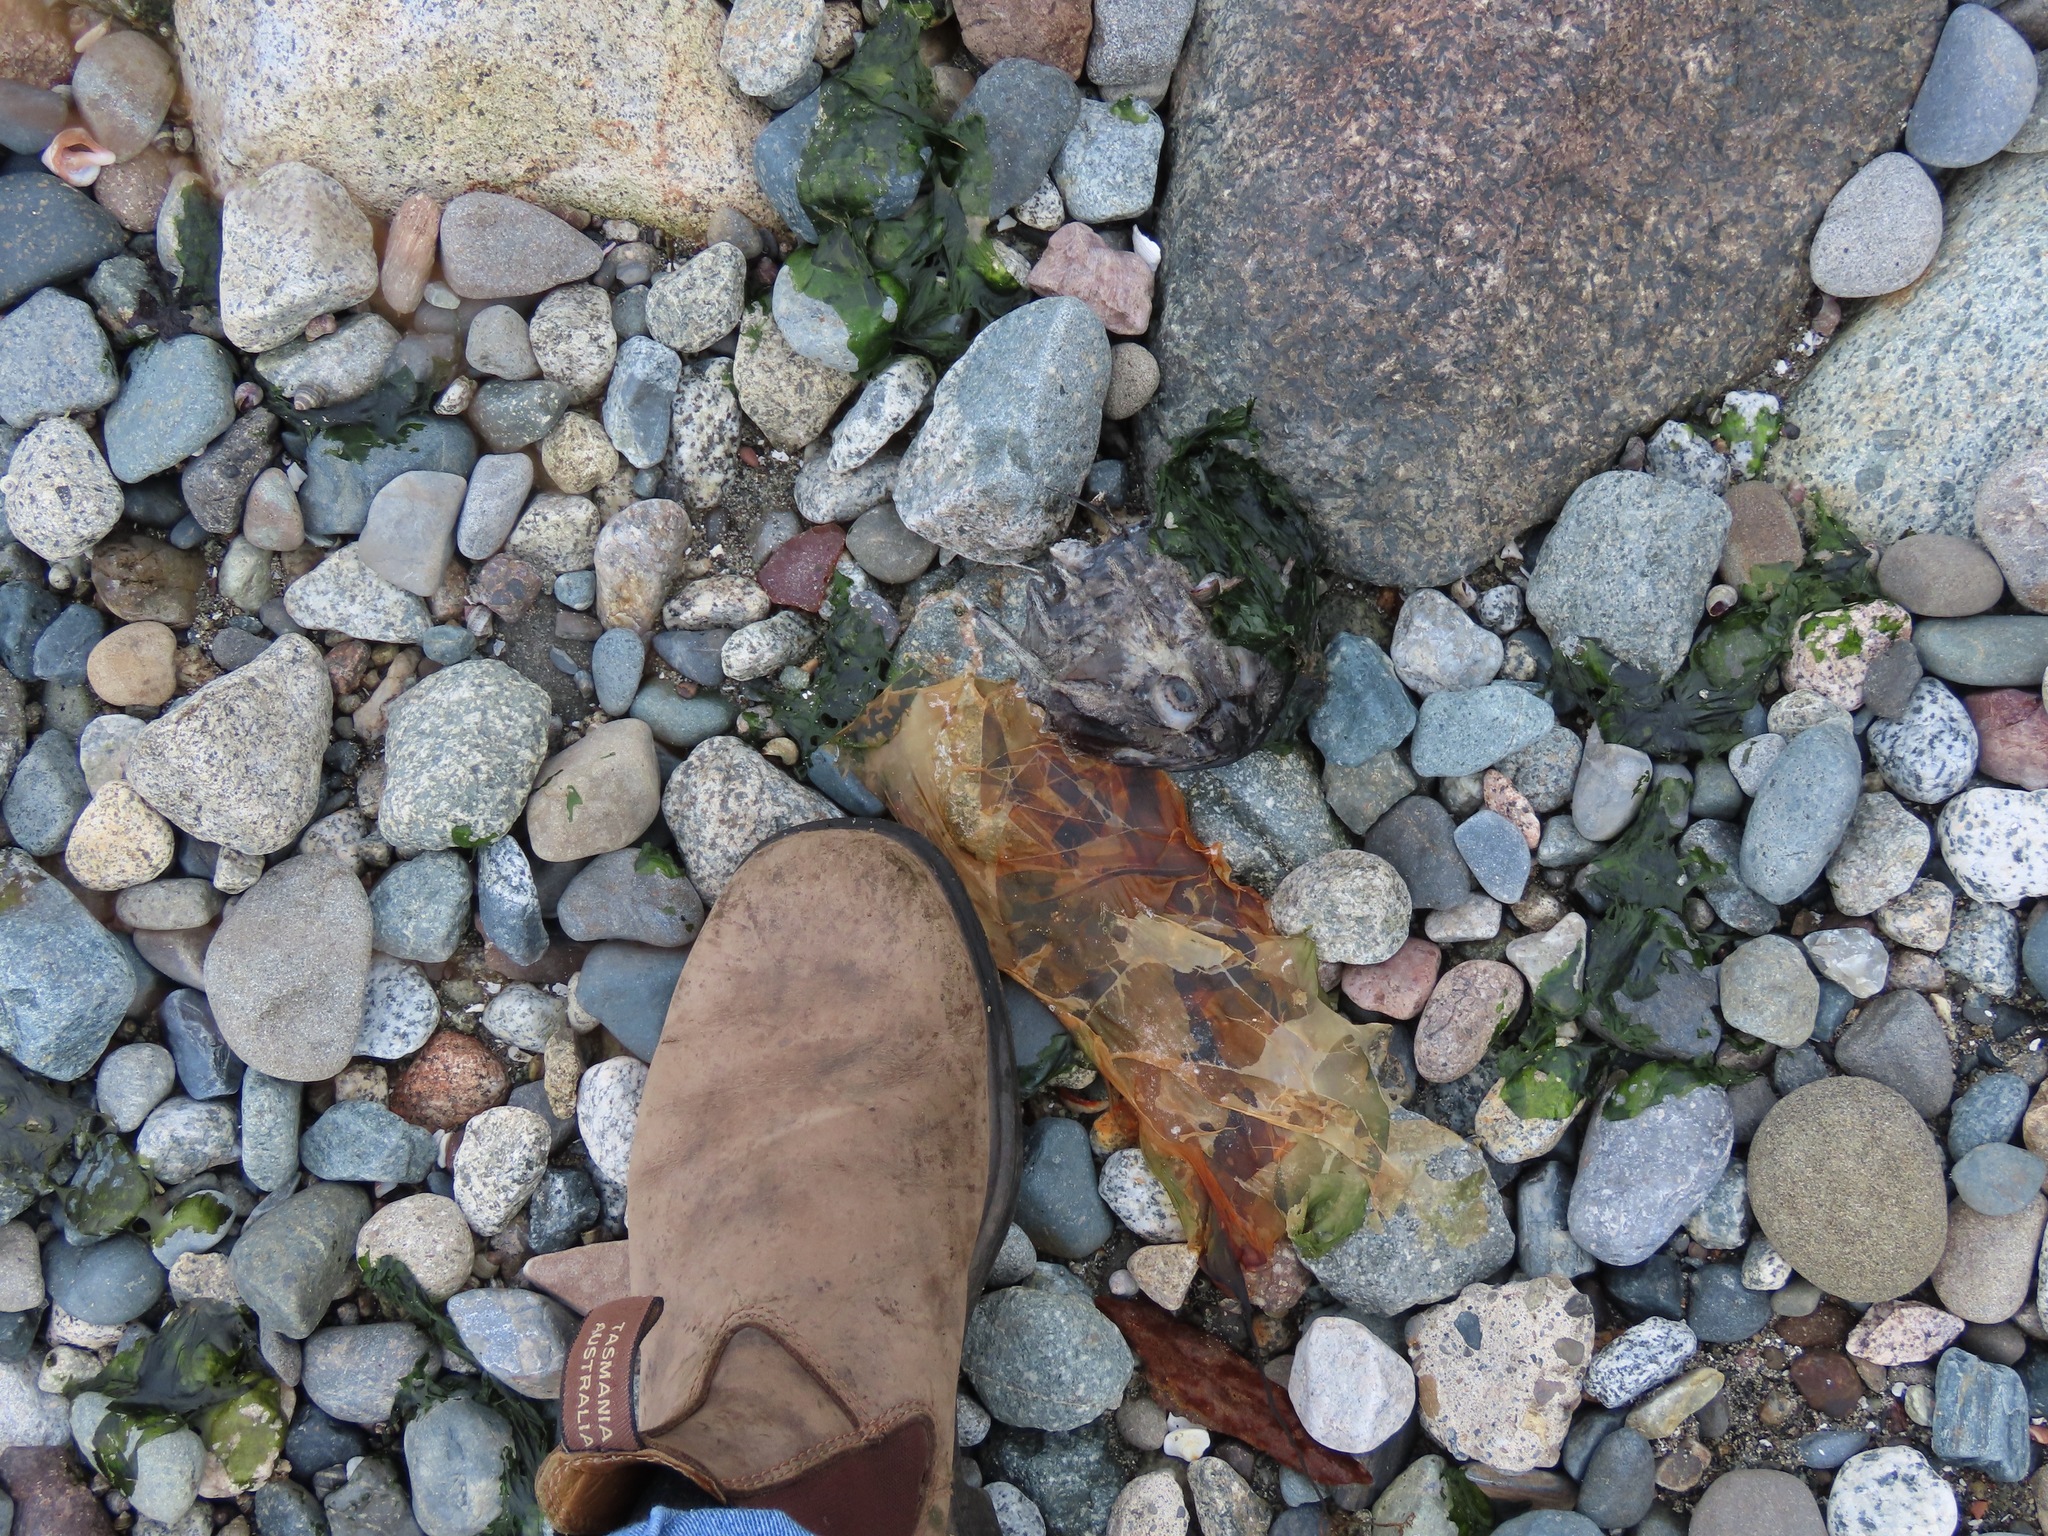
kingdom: Animalia
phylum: Chordata
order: Scorpaeniformes
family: Cottidae
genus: Enophrys
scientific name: Enophrys bison
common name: Buffalo sculpin
